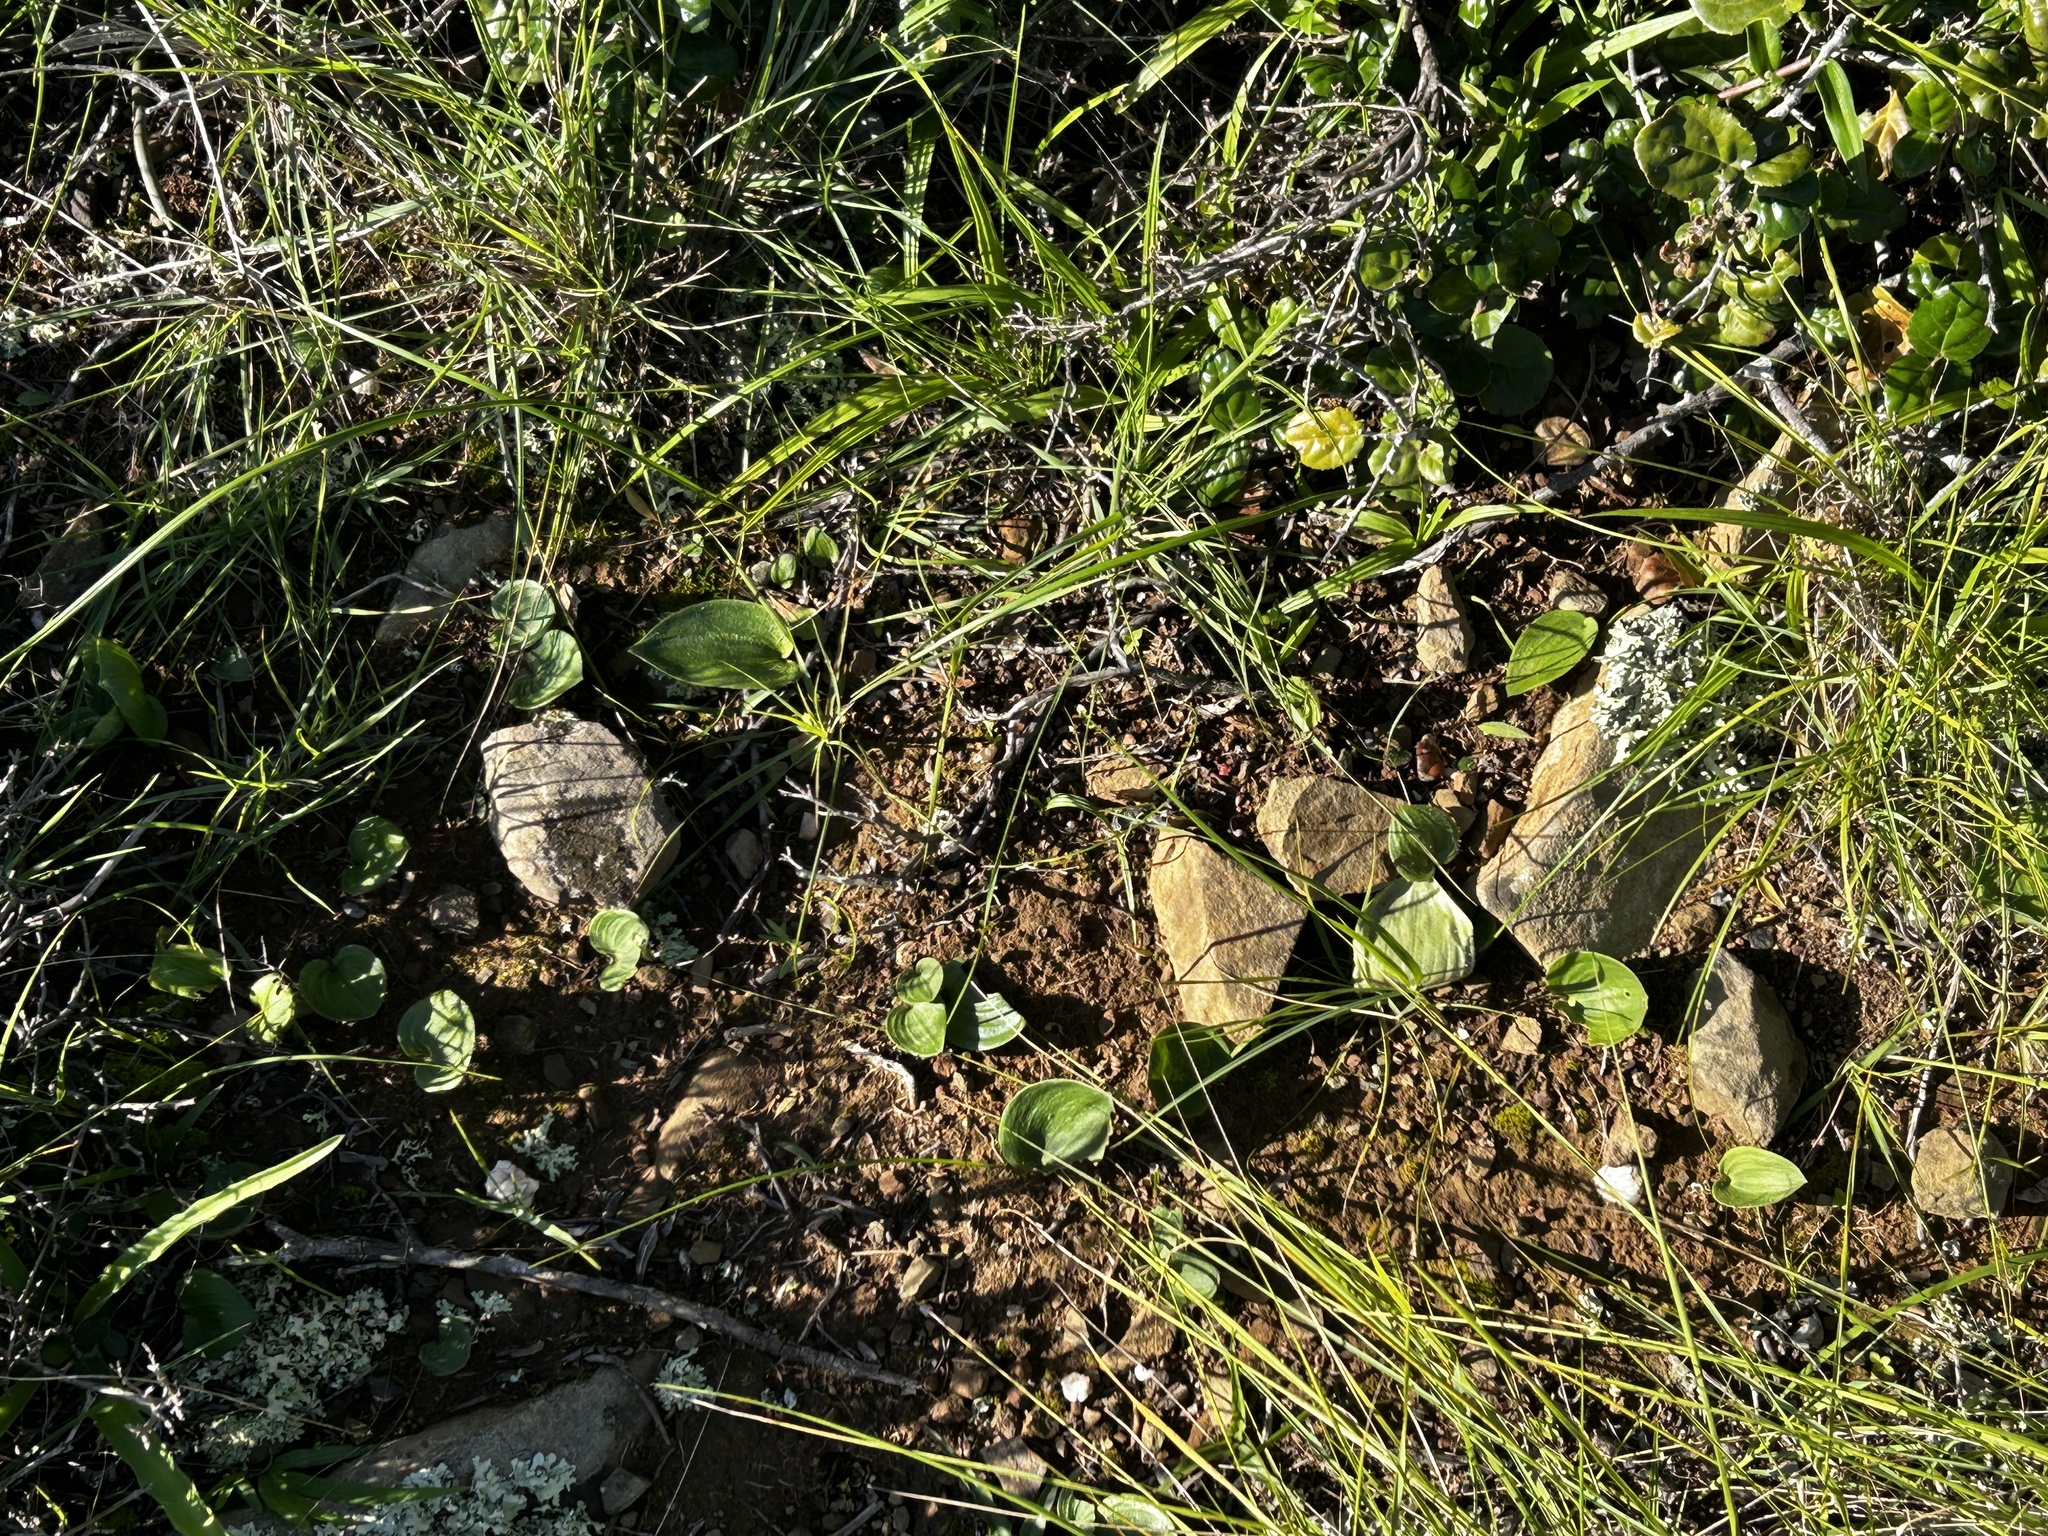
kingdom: Plantae
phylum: Tracheophyta
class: Liliopsida
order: Asparagales
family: Asparagaceae
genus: Eriospermum
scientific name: Eriospermum capense
